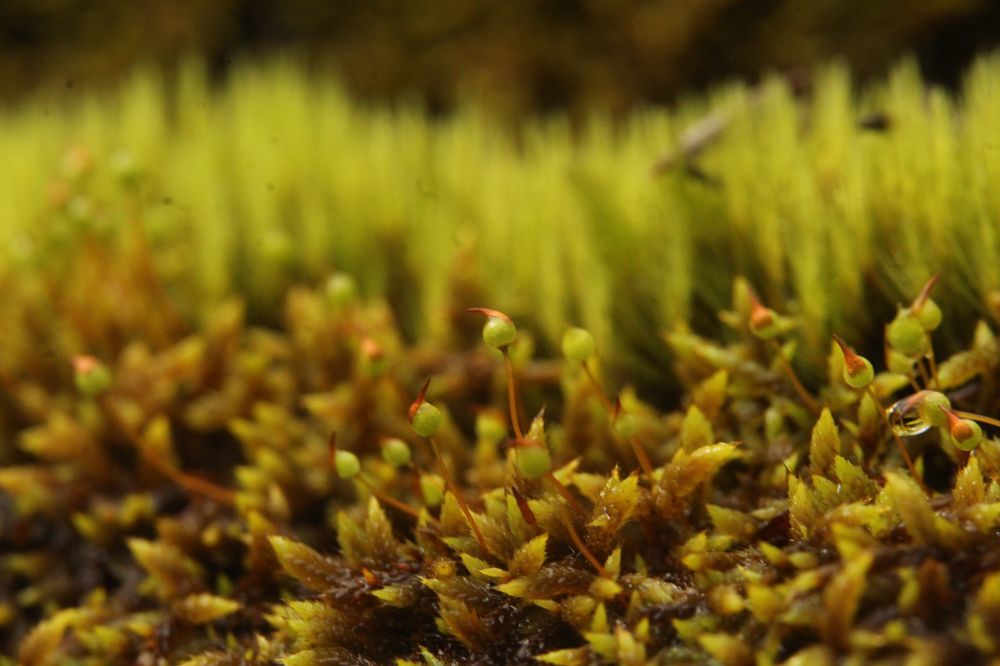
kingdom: Plantae
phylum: Bryophyta
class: Bryopsida
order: Hedwigiales
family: Hedwigiaceae
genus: Rhacocarpus
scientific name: Rhacocarpus purpurascens
